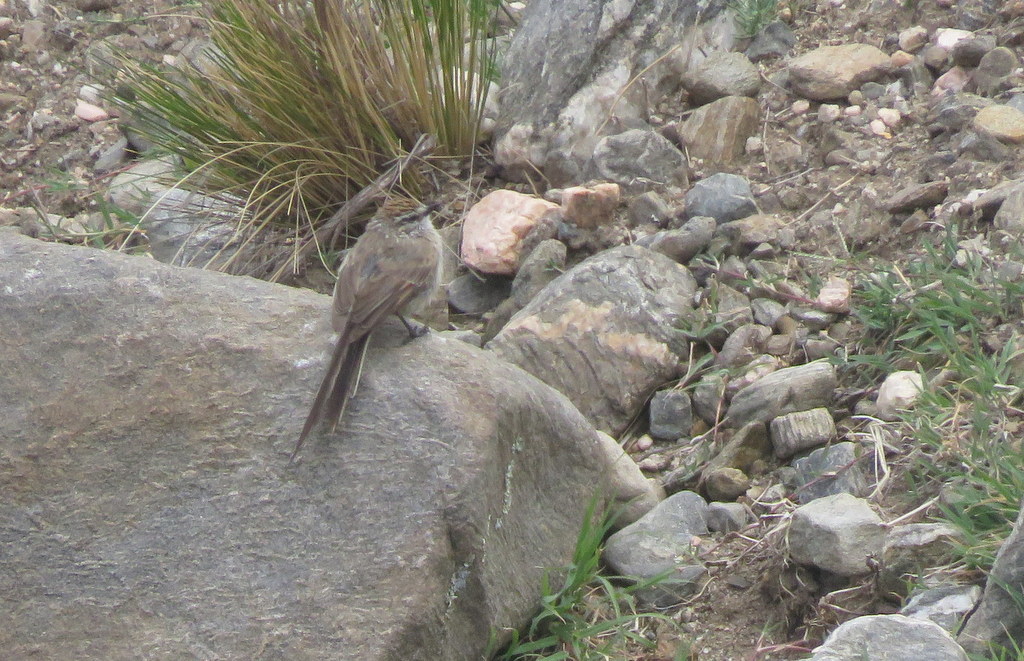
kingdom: Animalia
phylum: Chordata
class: Aves
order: Passeriformes
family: Furnariidae
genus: Leptasthenura
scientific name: Leptasthenura aegithaloides
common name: Plain-mantled tit-spinetail
